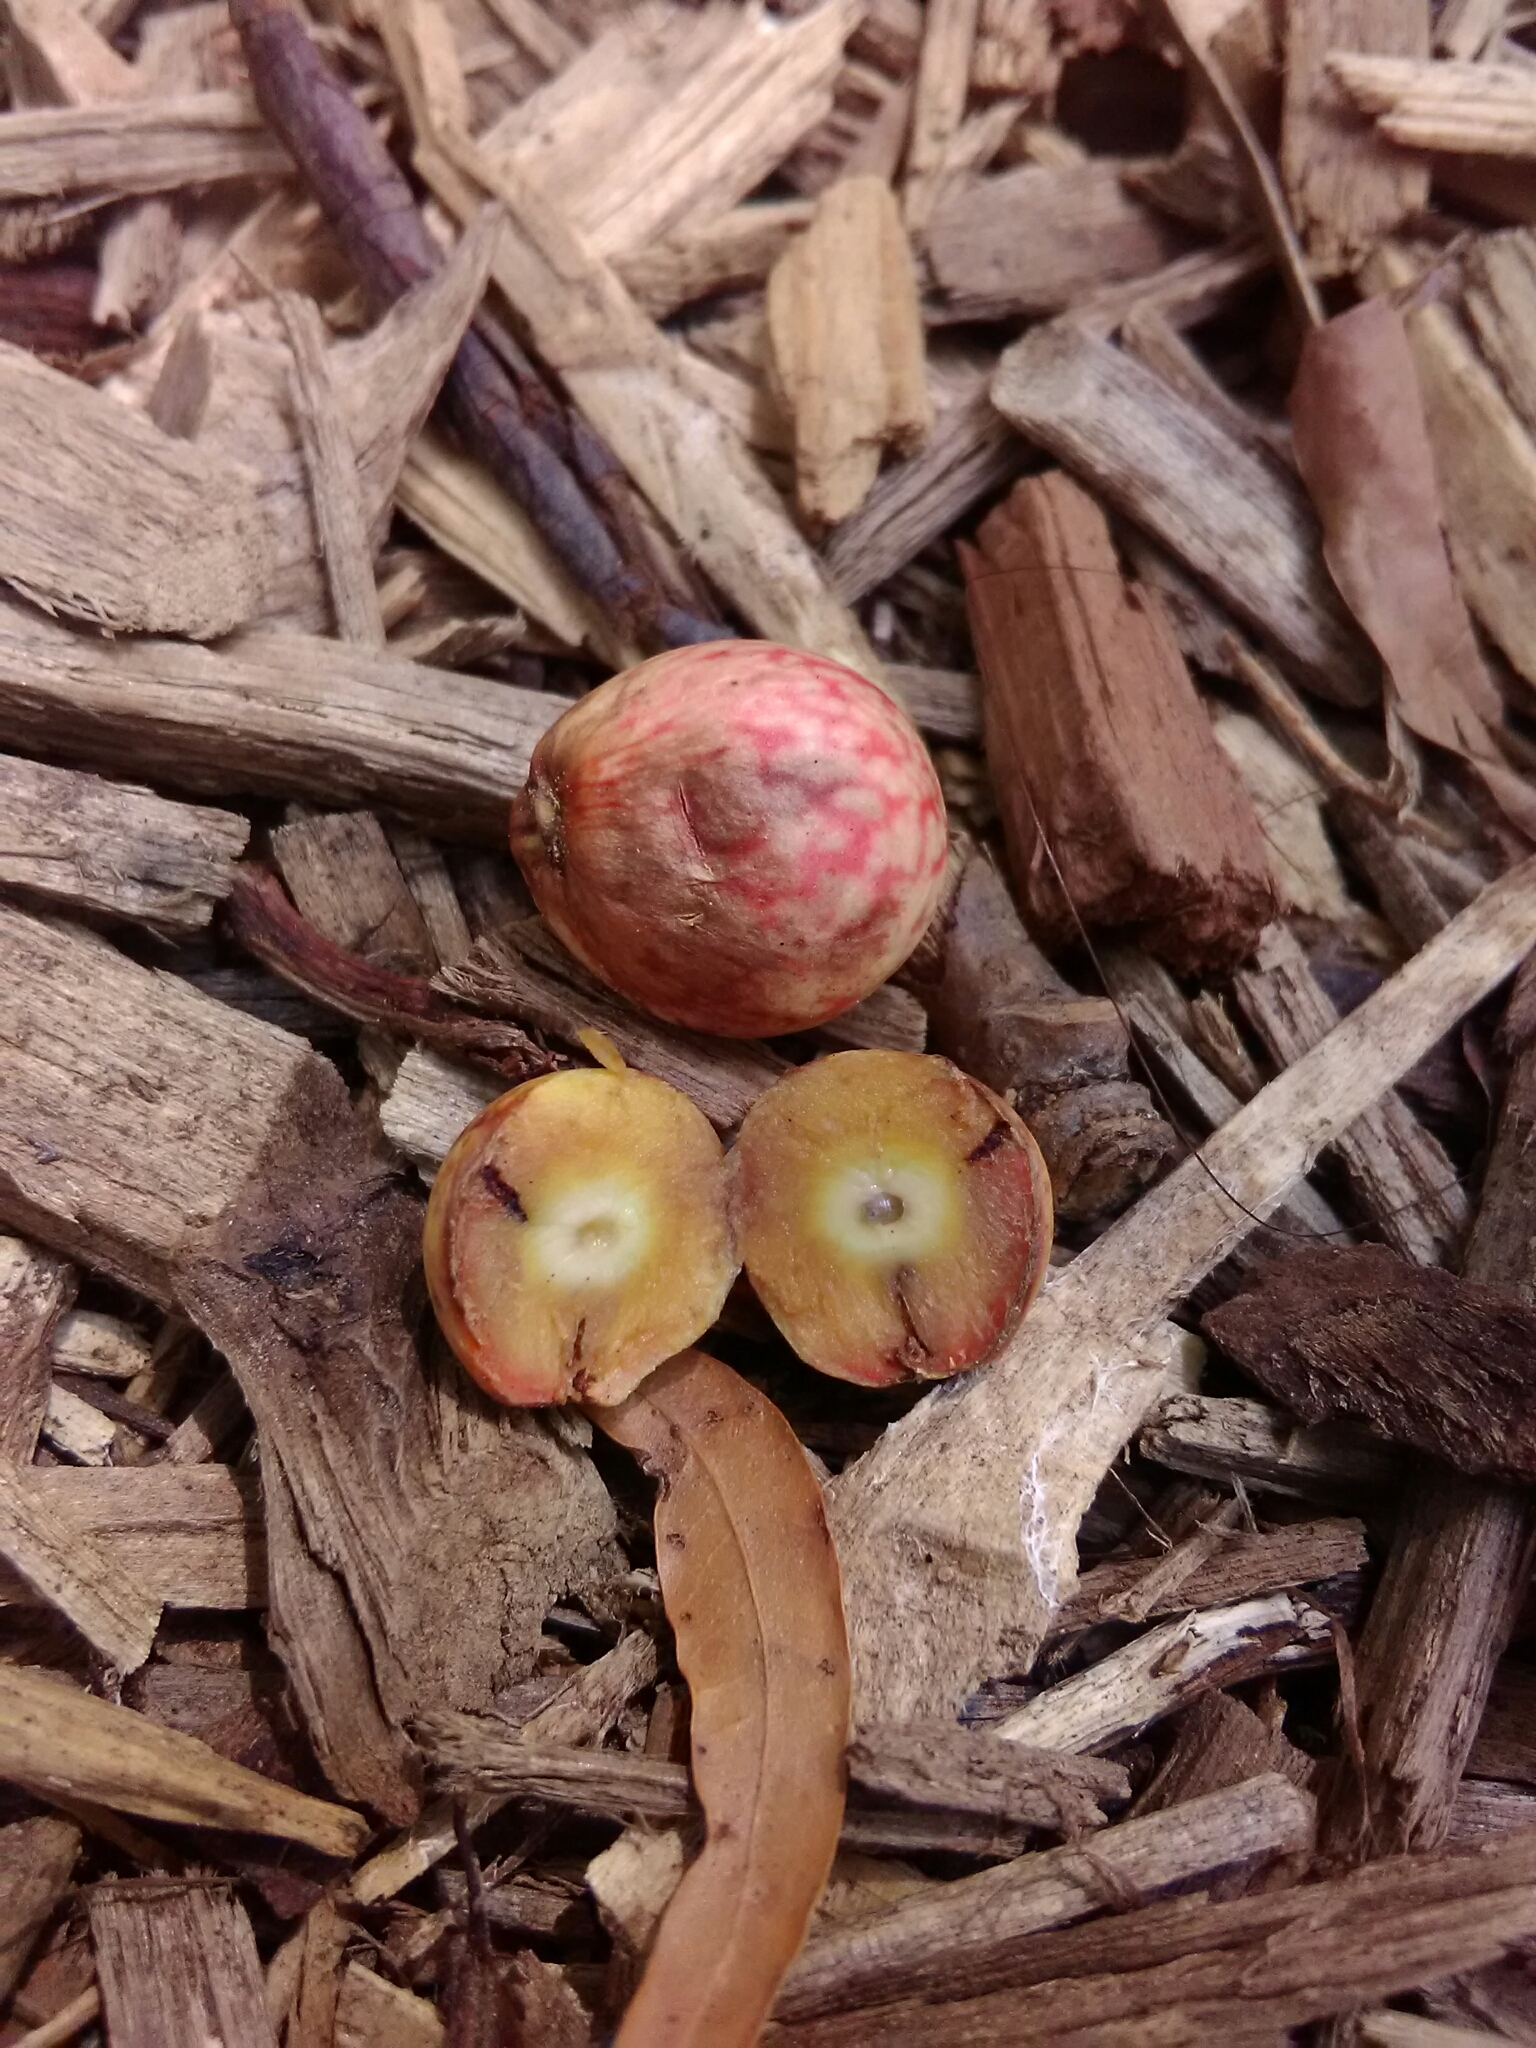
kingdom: Animalia
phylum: Arthropoda
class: Insecta
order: Hymenoptera
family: Cynipidae
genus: Amphibolips
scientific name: Amphibolips
